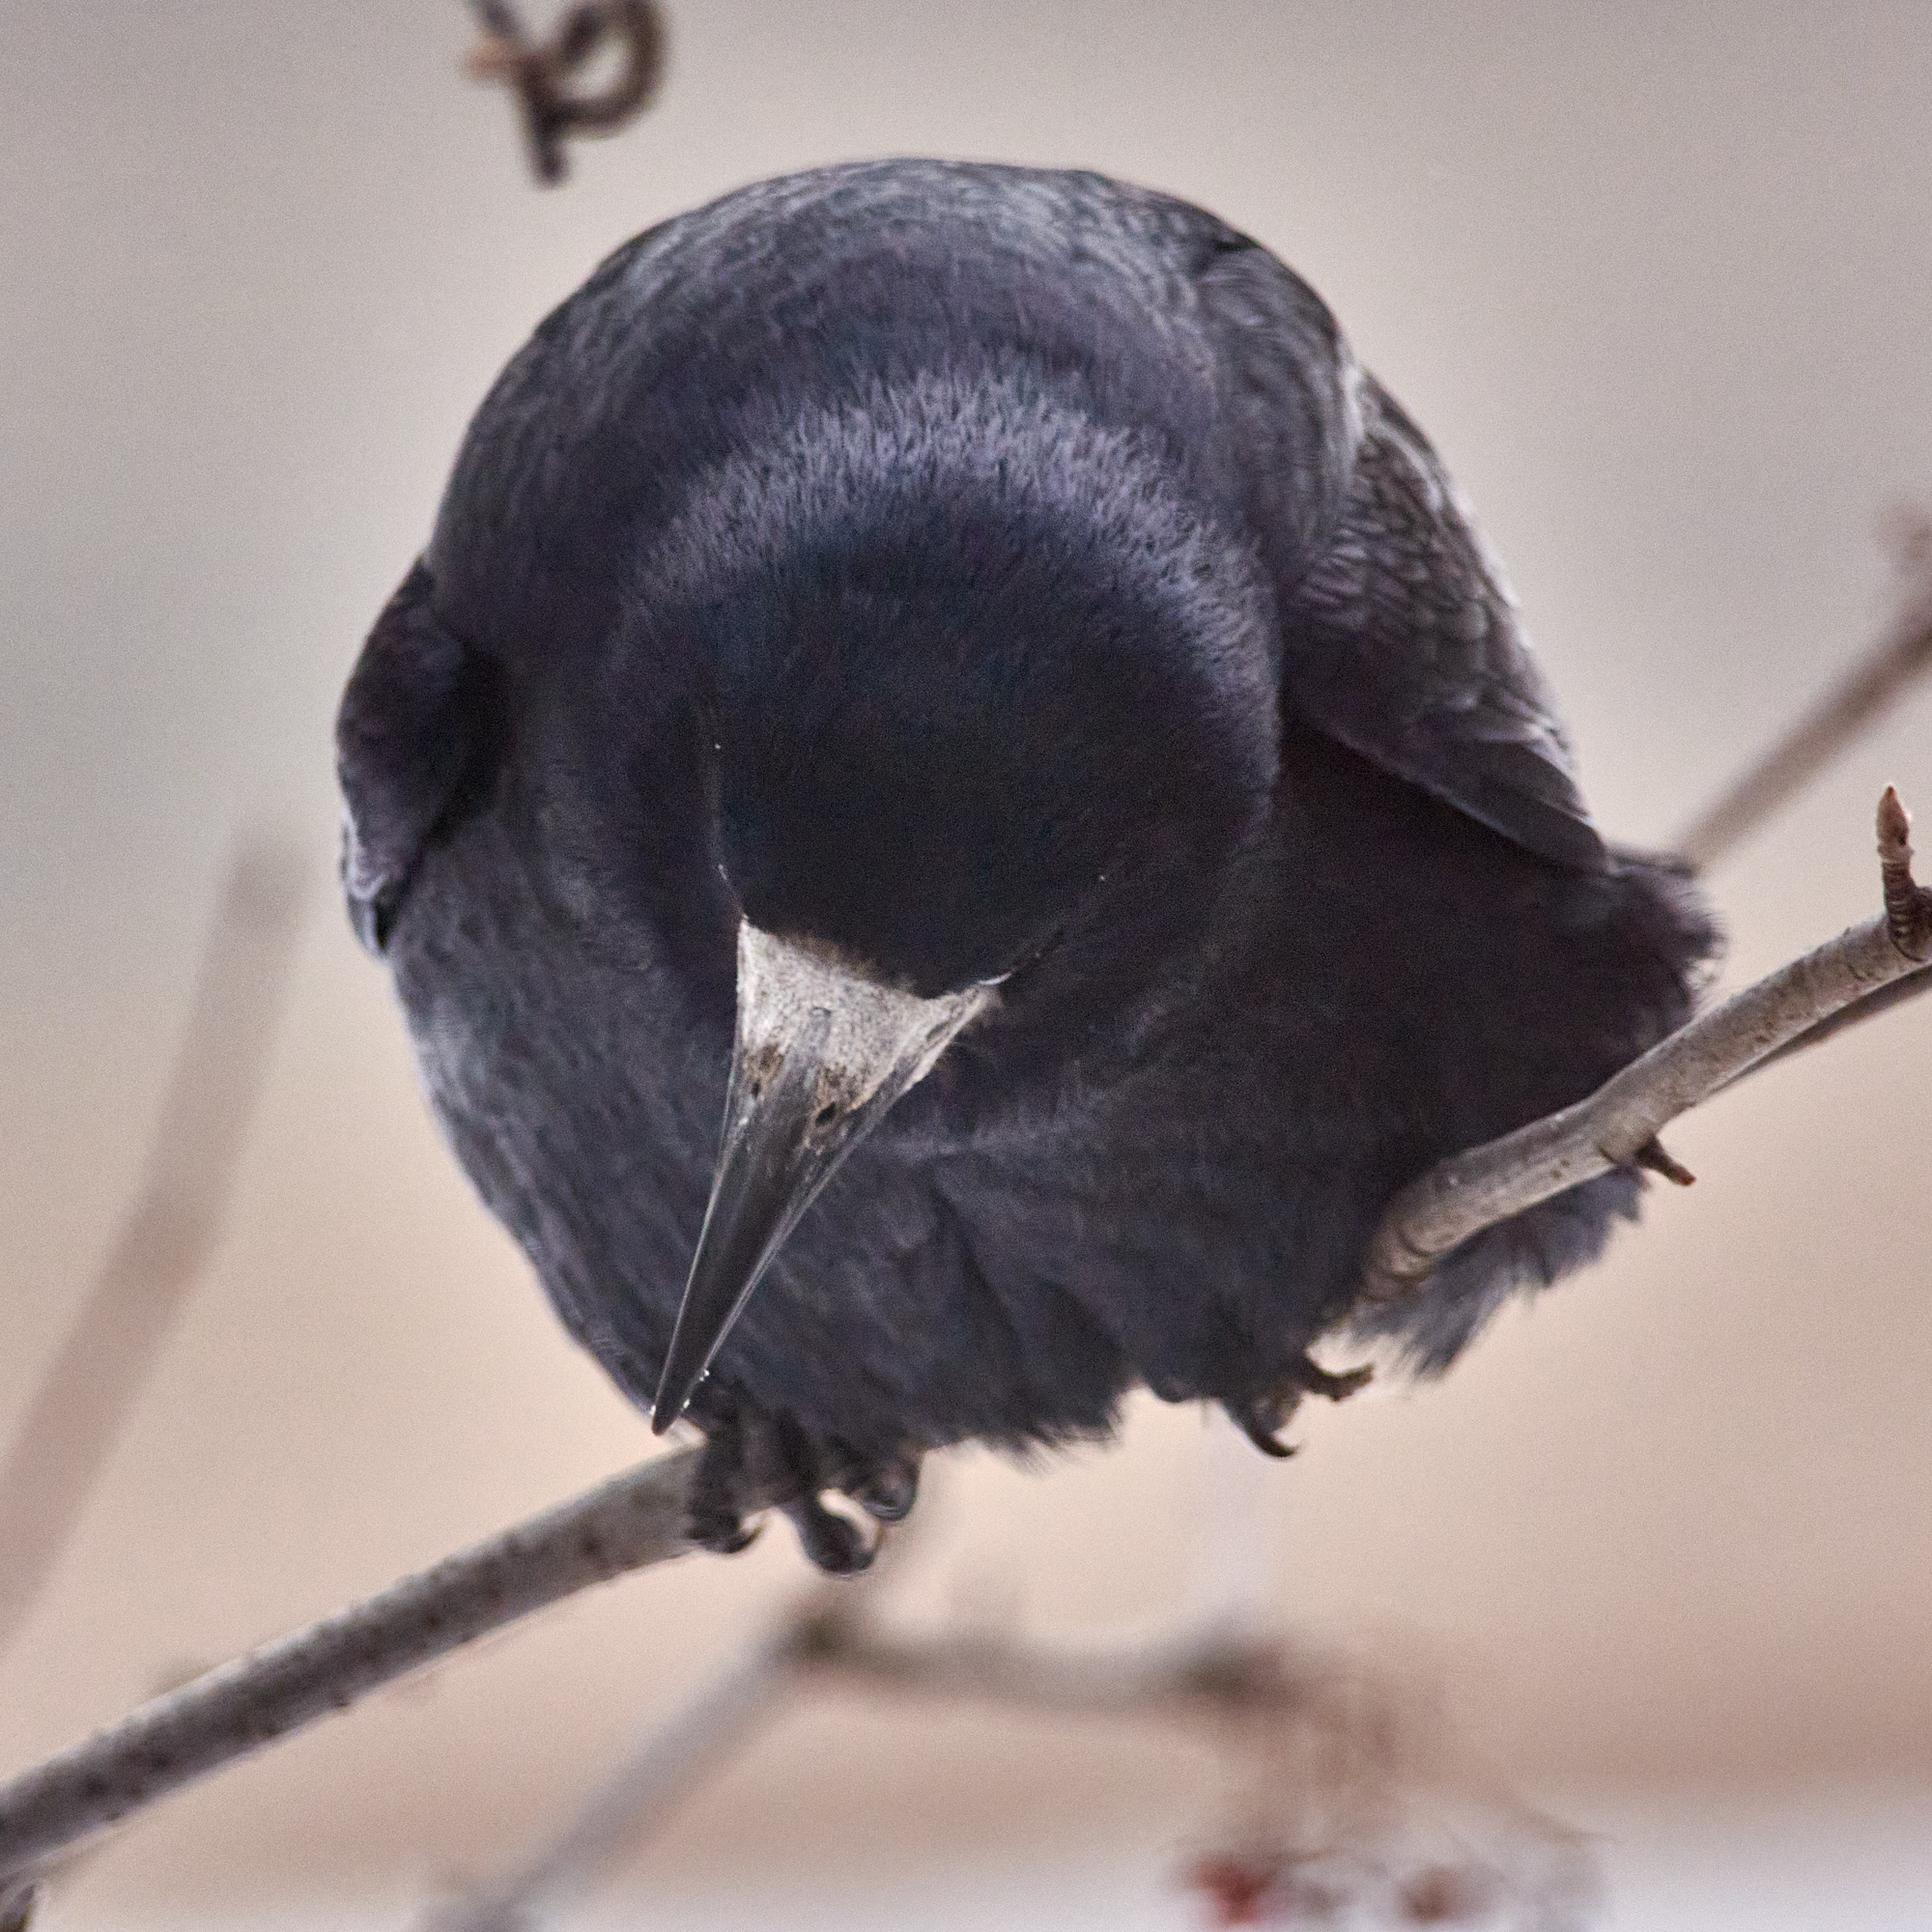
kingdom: Animalia
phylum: Chordata
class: Aves
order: Passeriformes
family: Corvidae
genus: Corvus
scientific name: Corvus frugilegus
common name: Rook
